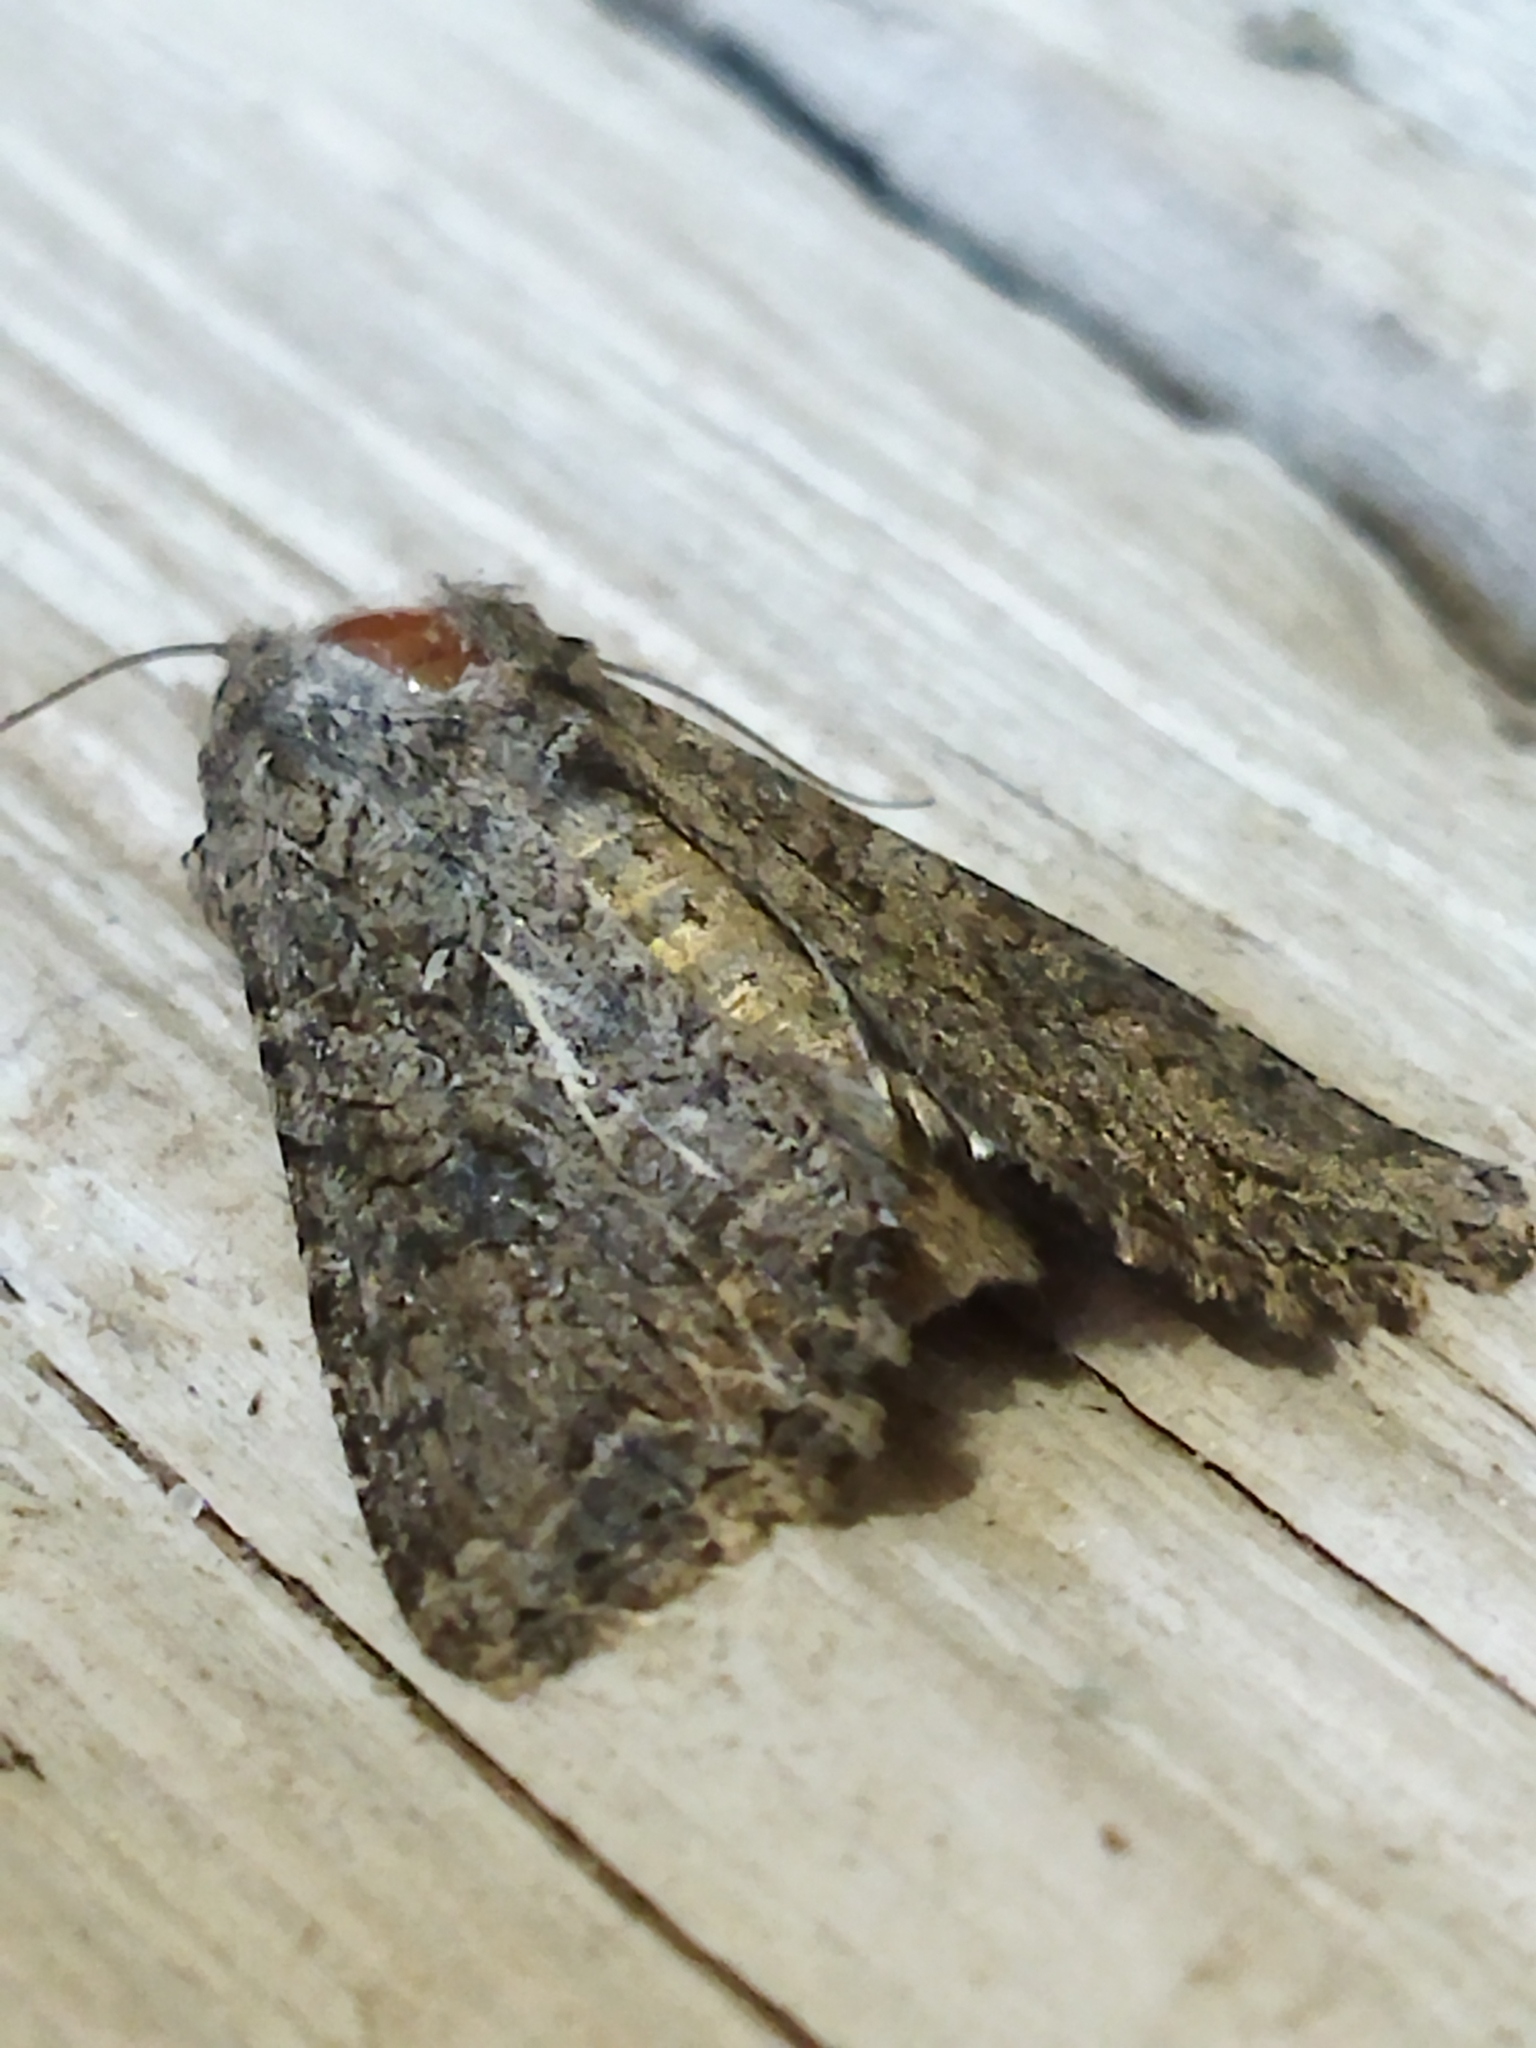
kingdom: Animalia
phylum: Arthropoda
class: Insecta
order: Lepidoptera
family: Noctuidae
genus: Anarta
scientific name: Anarta trifolii
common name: Clover cutworm moth
